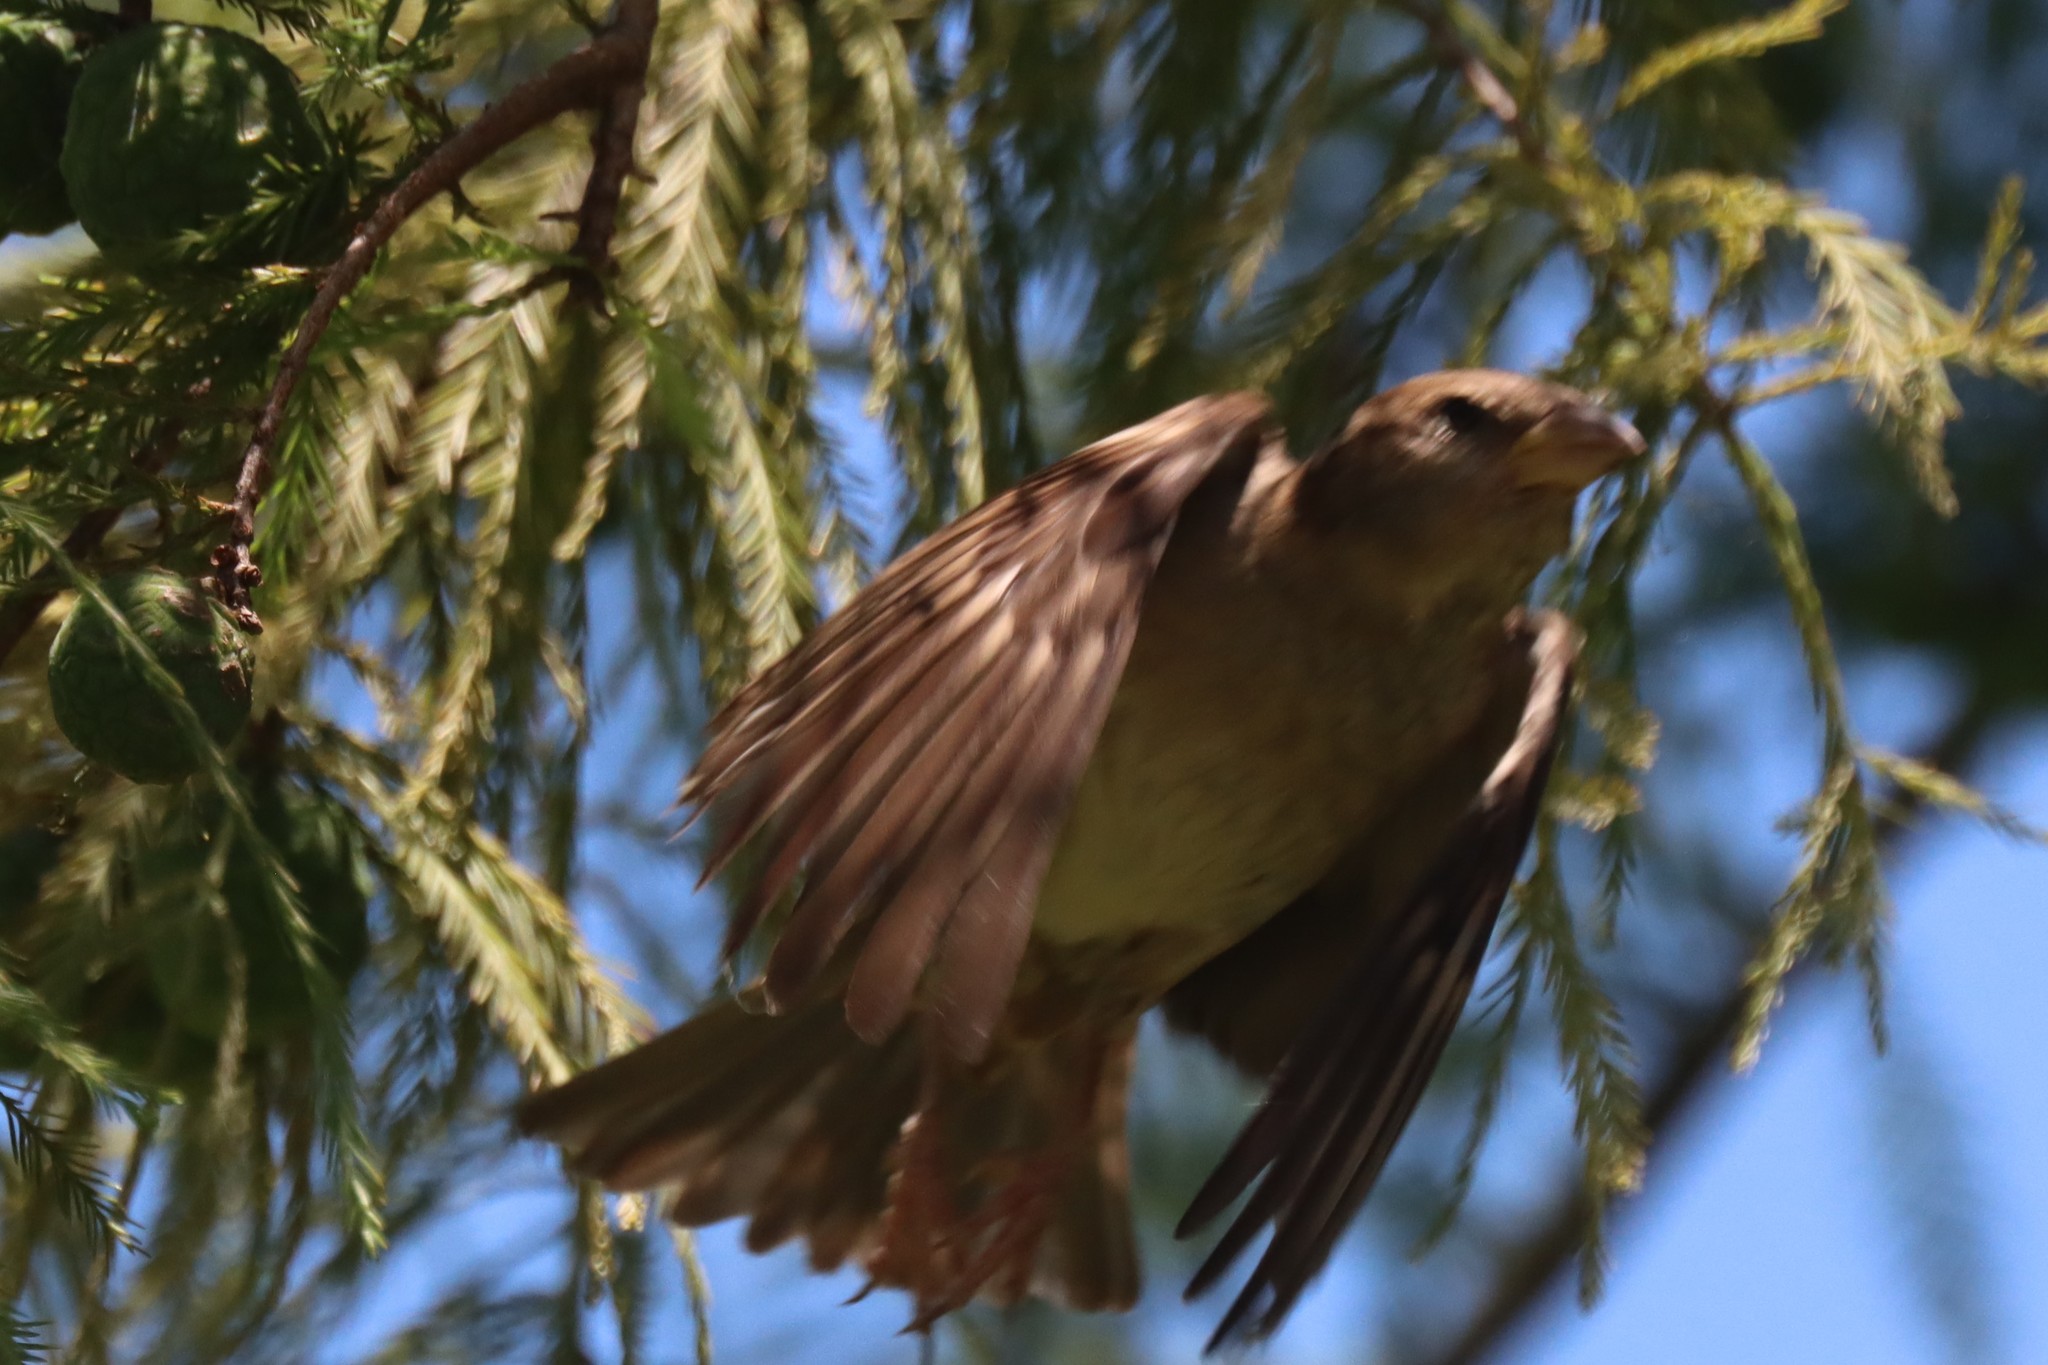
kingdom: Animalia
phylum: Chordata
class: Aves
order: Passeriformes
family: Passeridae
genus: Passer
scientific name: Passer domesticus
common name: House sparrow
